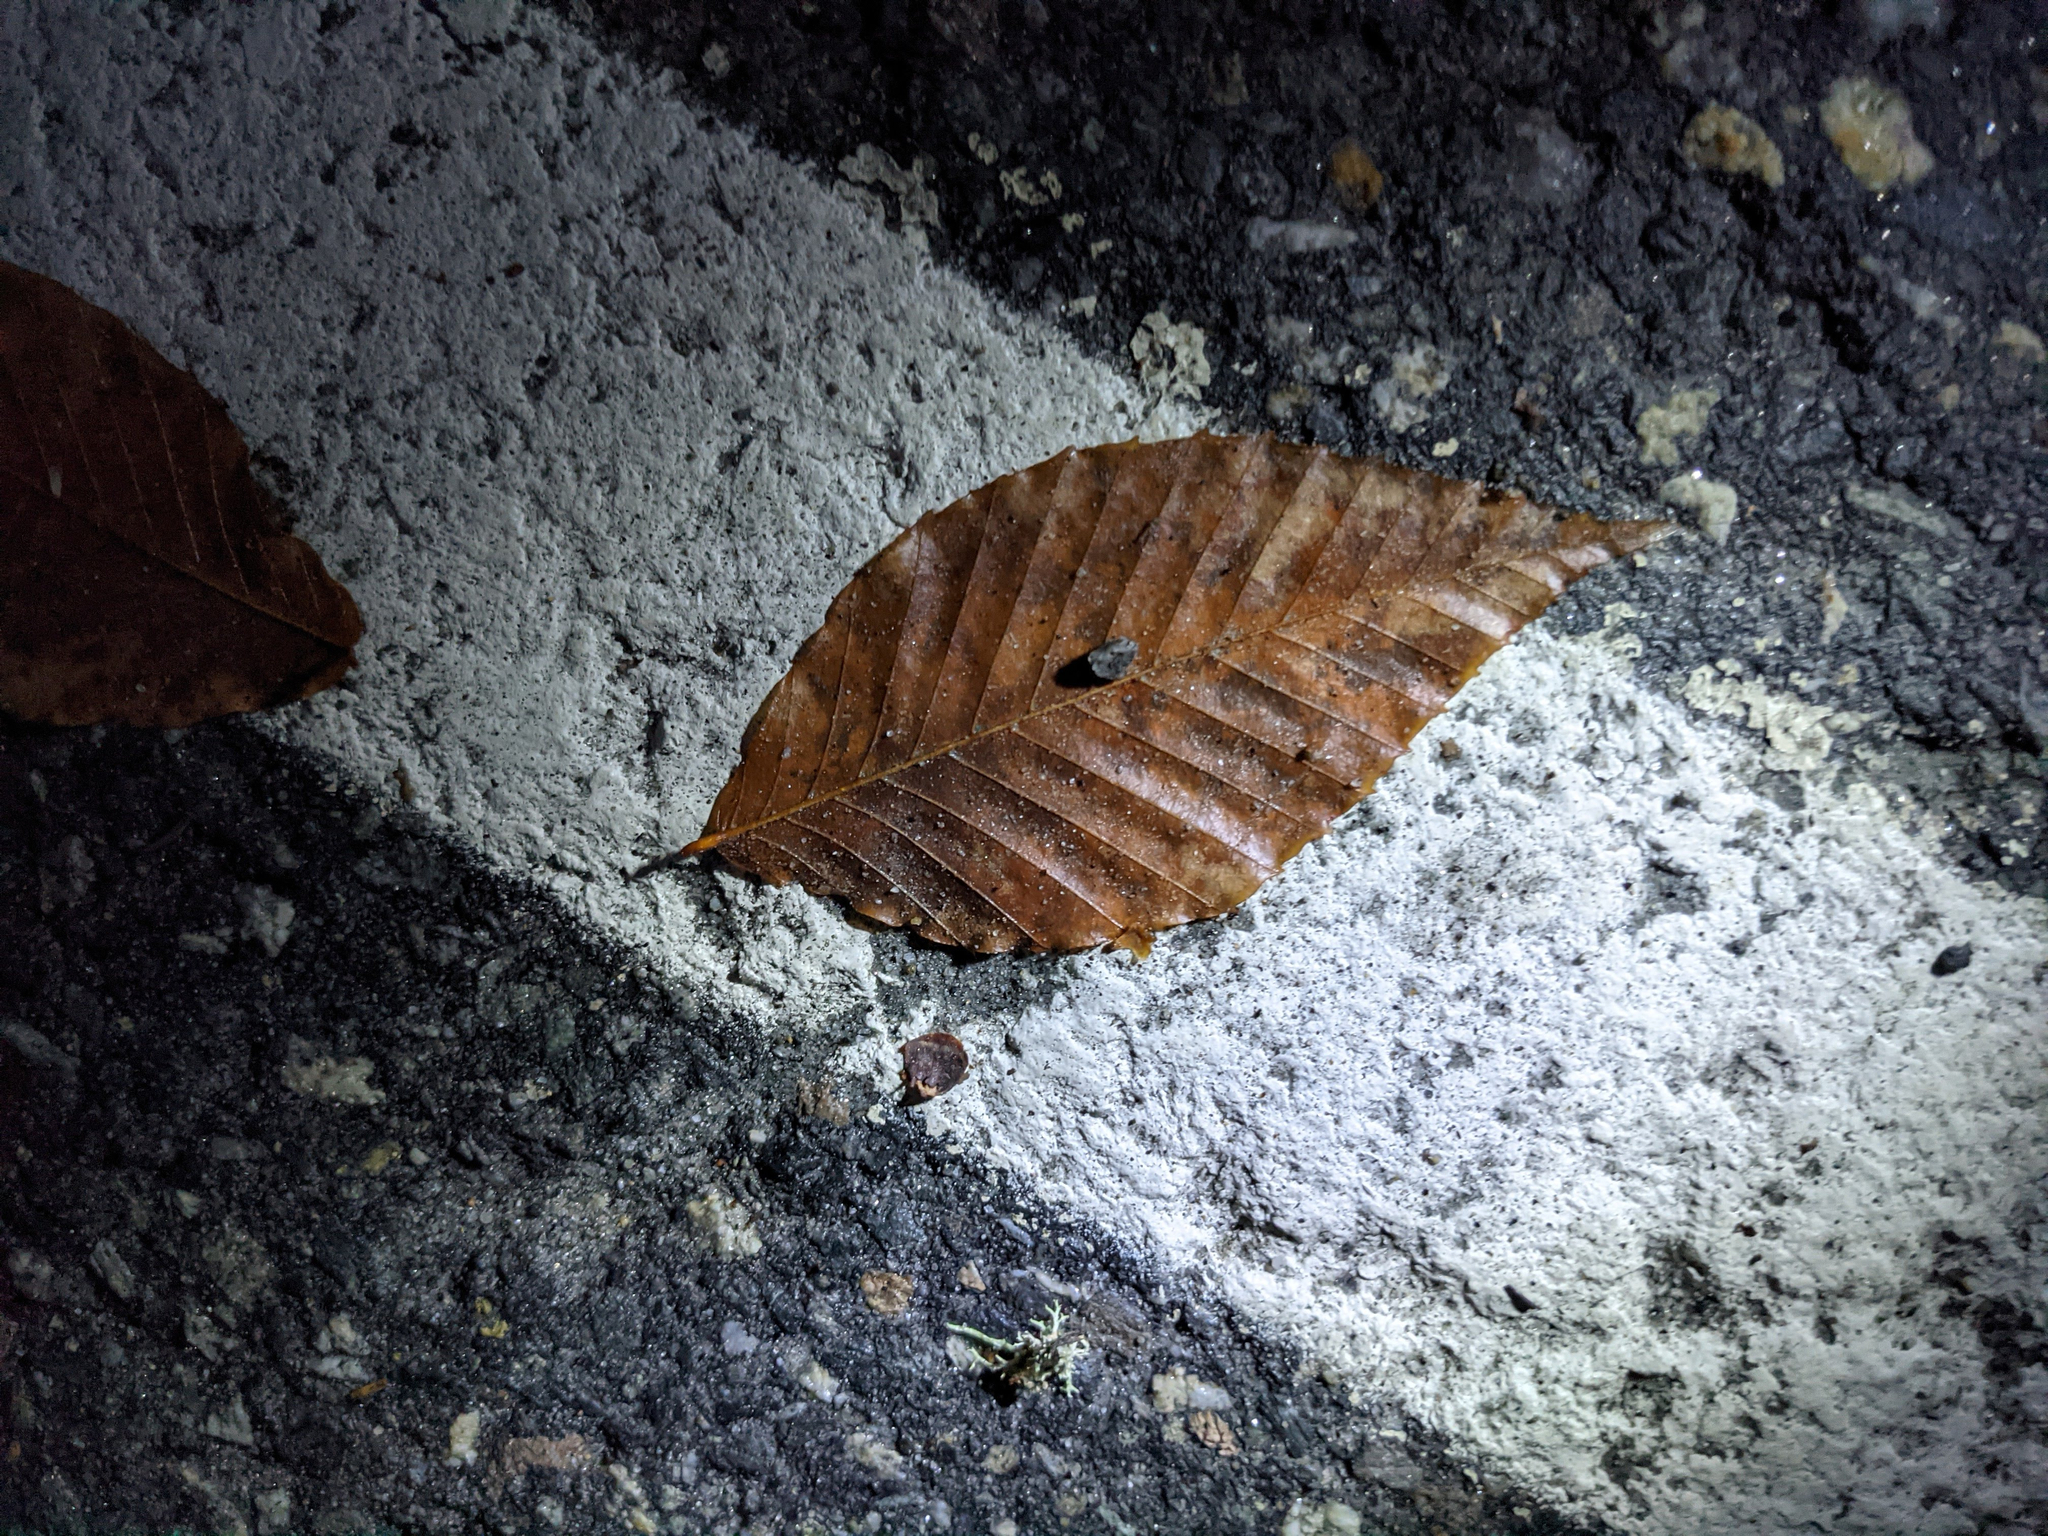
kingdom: Plantae
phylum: Tracheophyta
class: Magnoliopsida
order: Fagales
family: Fagaceae
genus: Fagus
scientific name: Fagus grandifolia
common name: American beech
